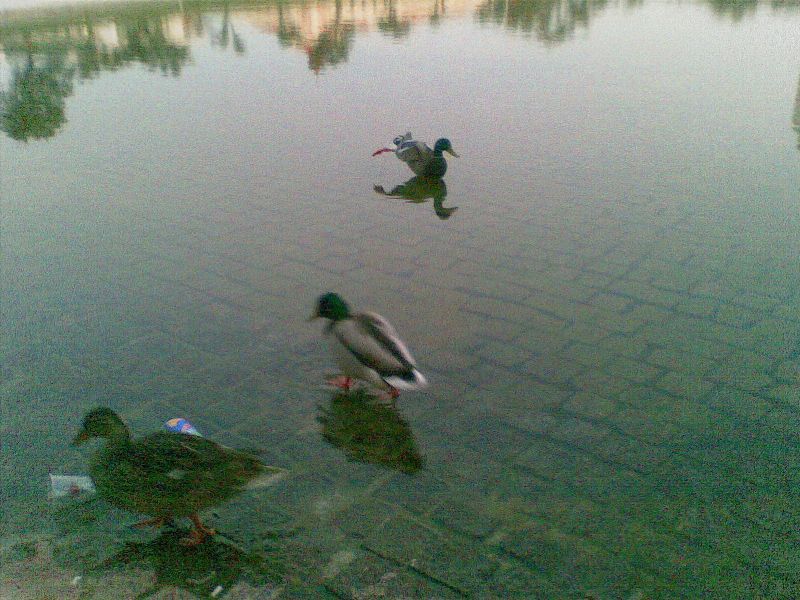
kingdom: Animalia
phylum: Chordata
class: Aves
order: Anseriformes
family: Anatidae
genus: Anas
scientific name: Anas platyrhynchos
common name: Mallard
